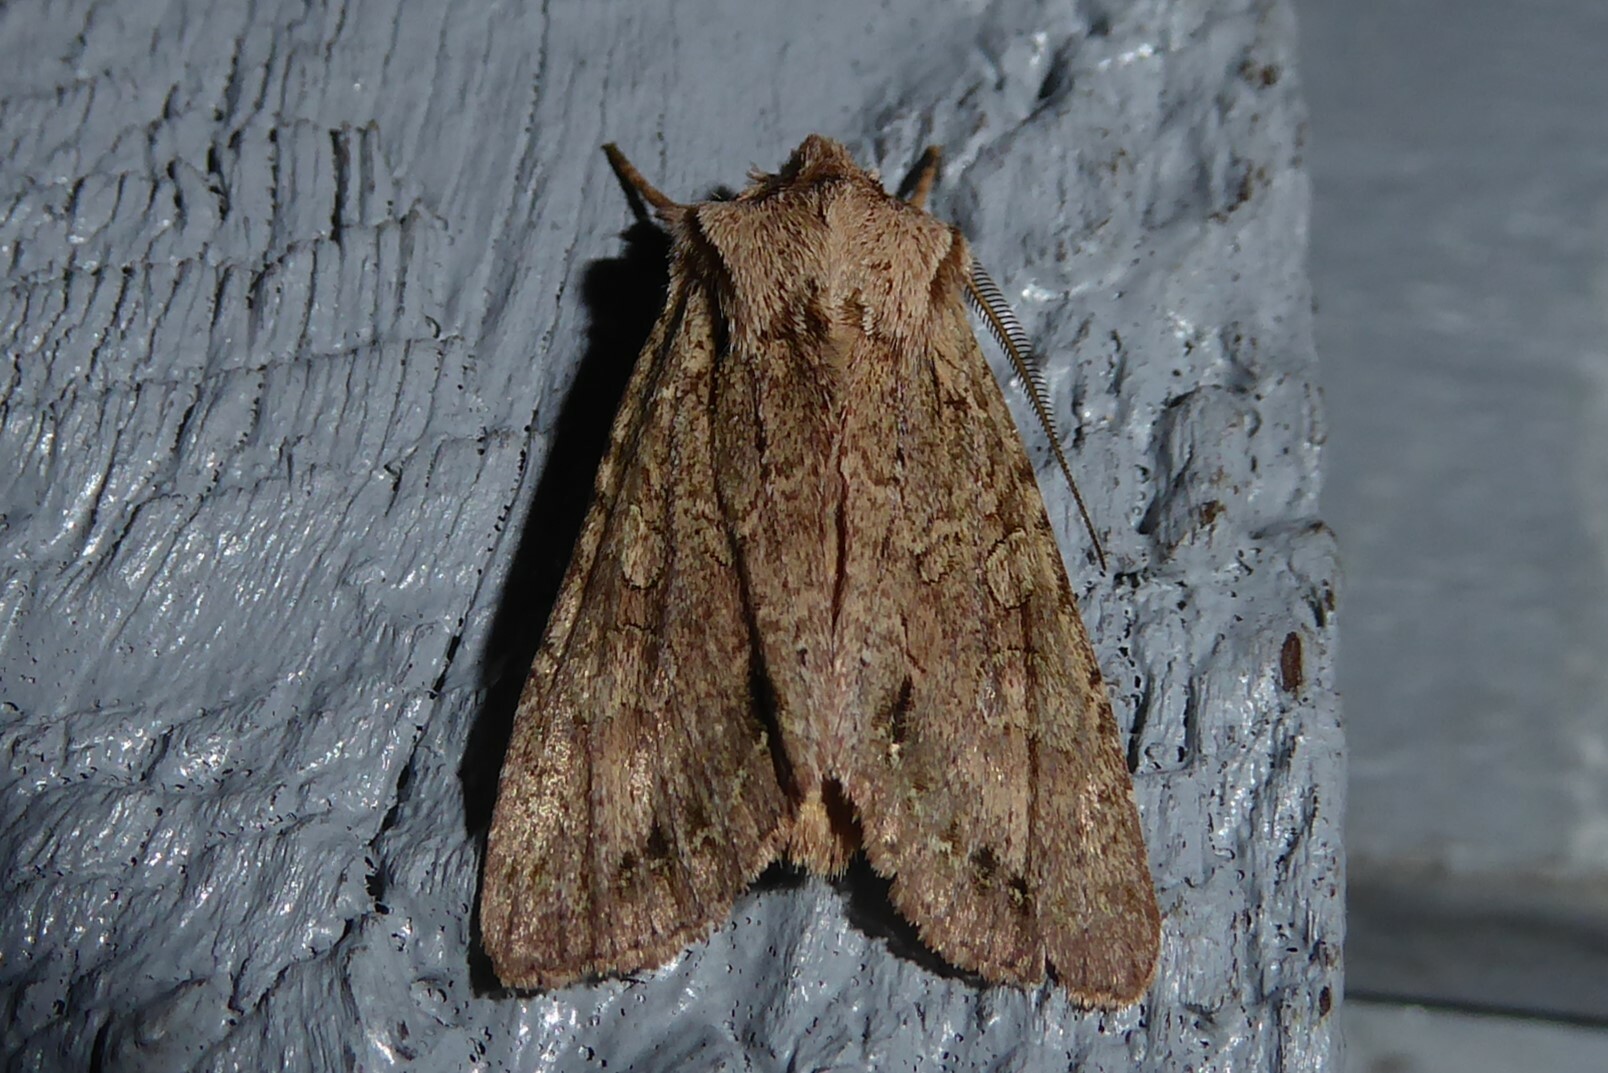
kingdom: Animalia
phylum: Arthropoda
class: Insecta
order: Lepidoptera
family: Noctuidae
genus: Ichneutica
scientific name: Ichneutica
